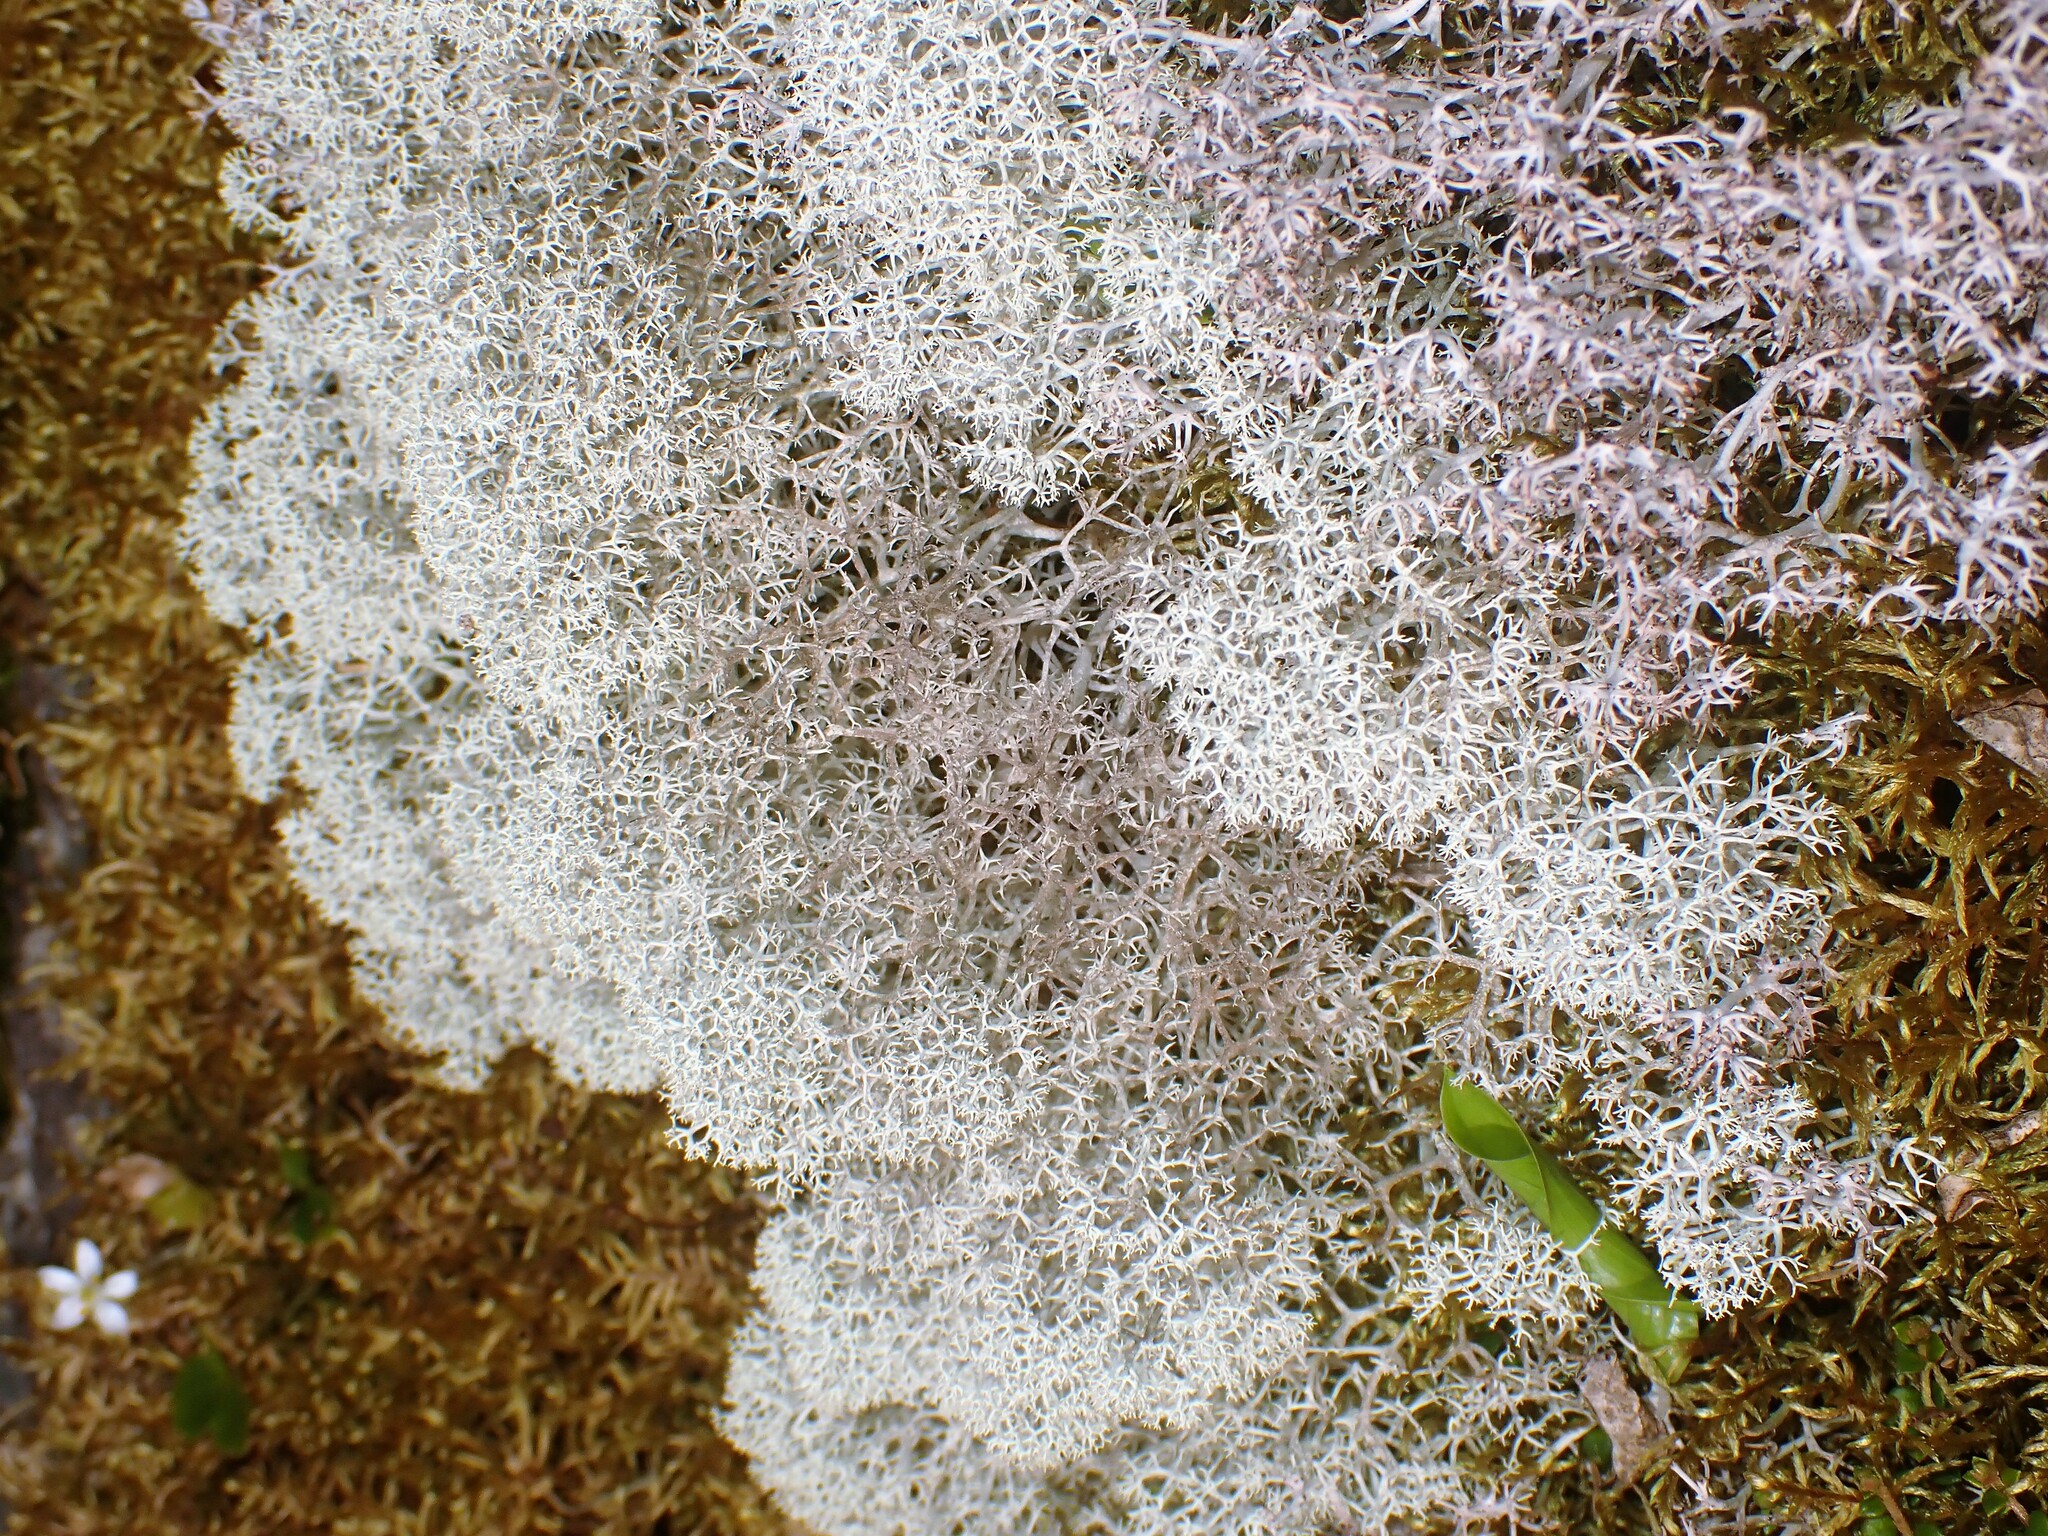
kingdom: Fungi
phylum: Ascomycota
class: Lecanoromycetes
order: Lecanorales
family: Cladoniaceae
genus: Cladonia
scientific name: Cladonia stellaris
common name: Star-tipped reindeer lichen
